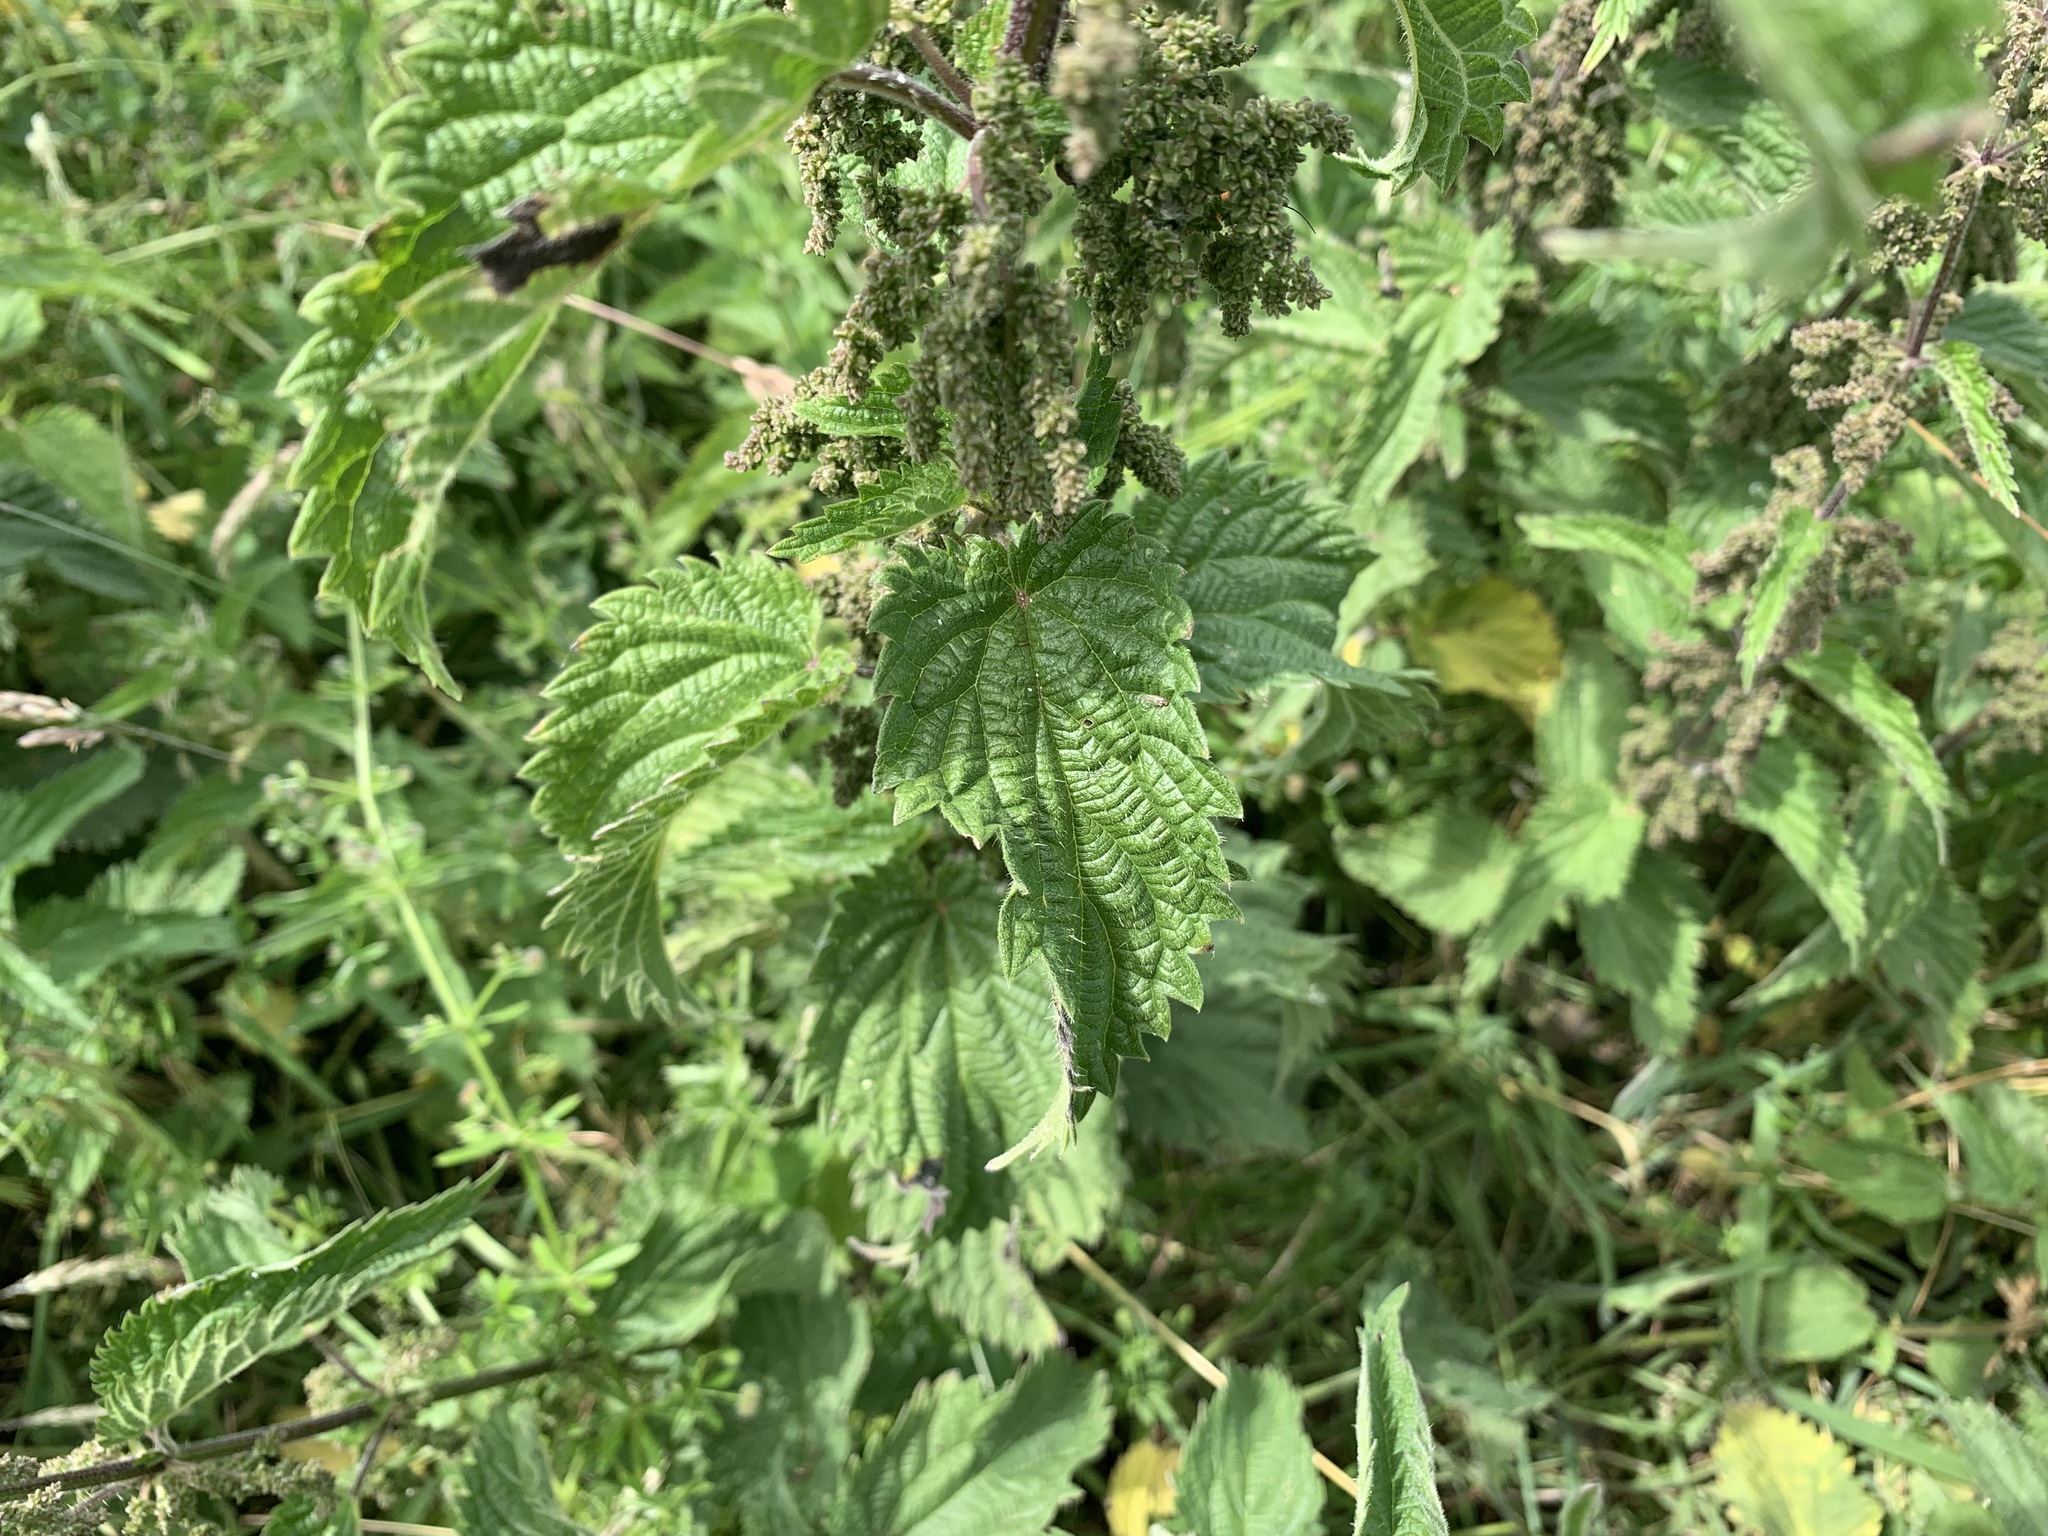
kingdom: Plantae
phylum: Tracheophyta
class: Magnoliopsida
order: Rosales
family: Urticaceae
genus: Urtica
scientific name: Urtica dioica
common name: Common nettle
